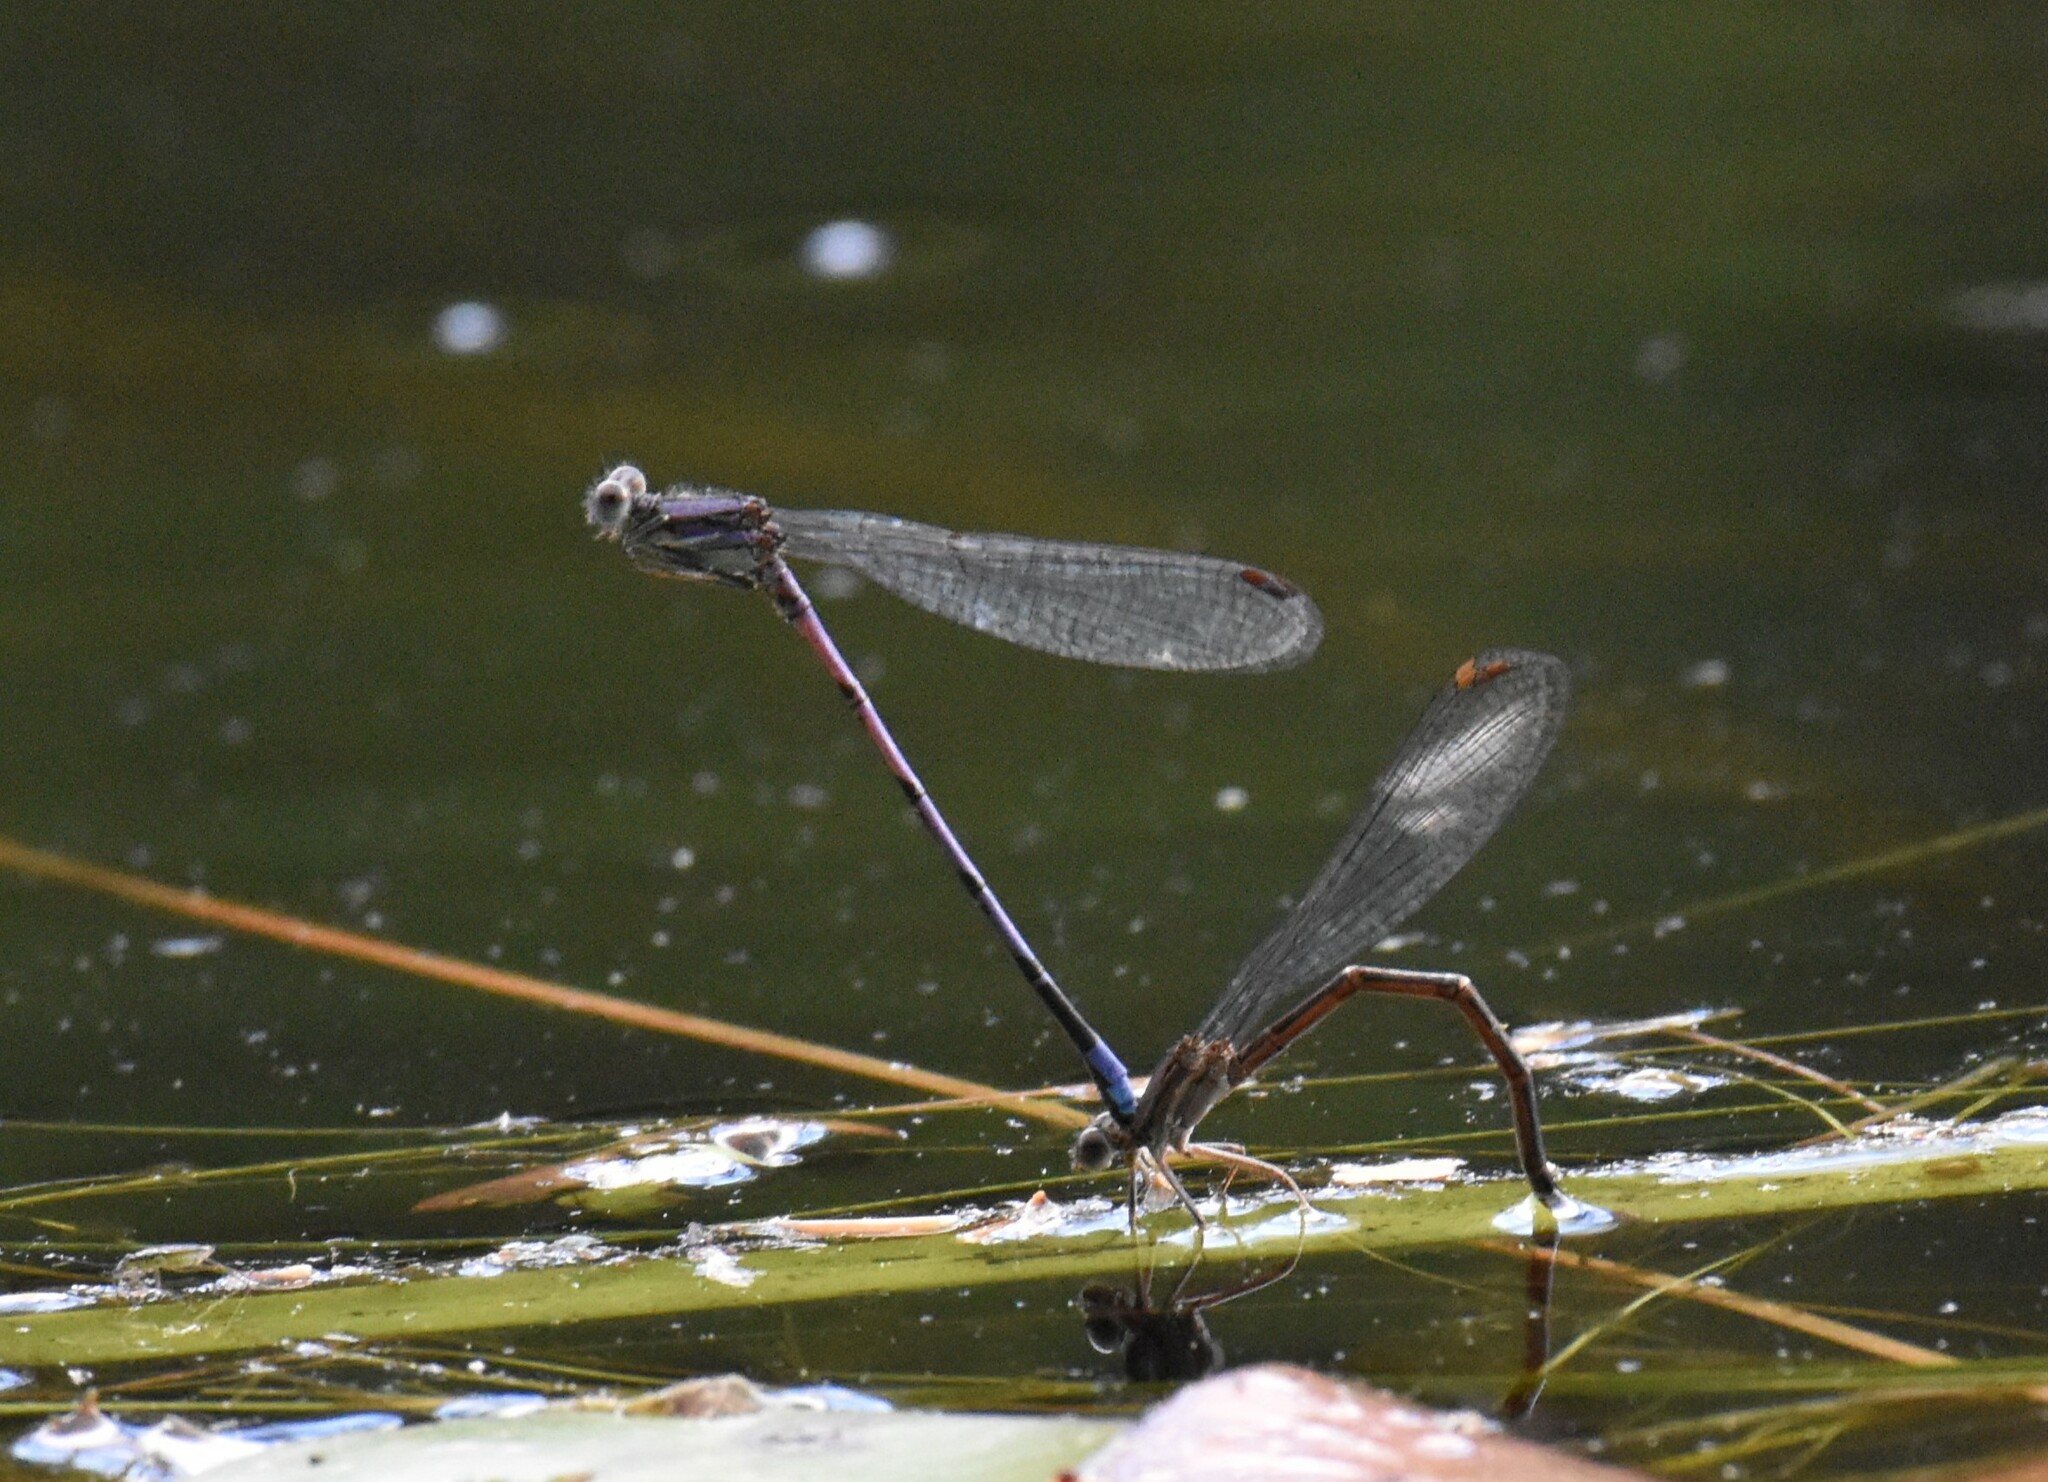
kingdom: Animalia
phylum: Arthropoda
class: Insecta
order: Odonata
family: Coenagrionidae
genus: Argia
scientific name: Argia fumipennis
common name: Variable dancer
